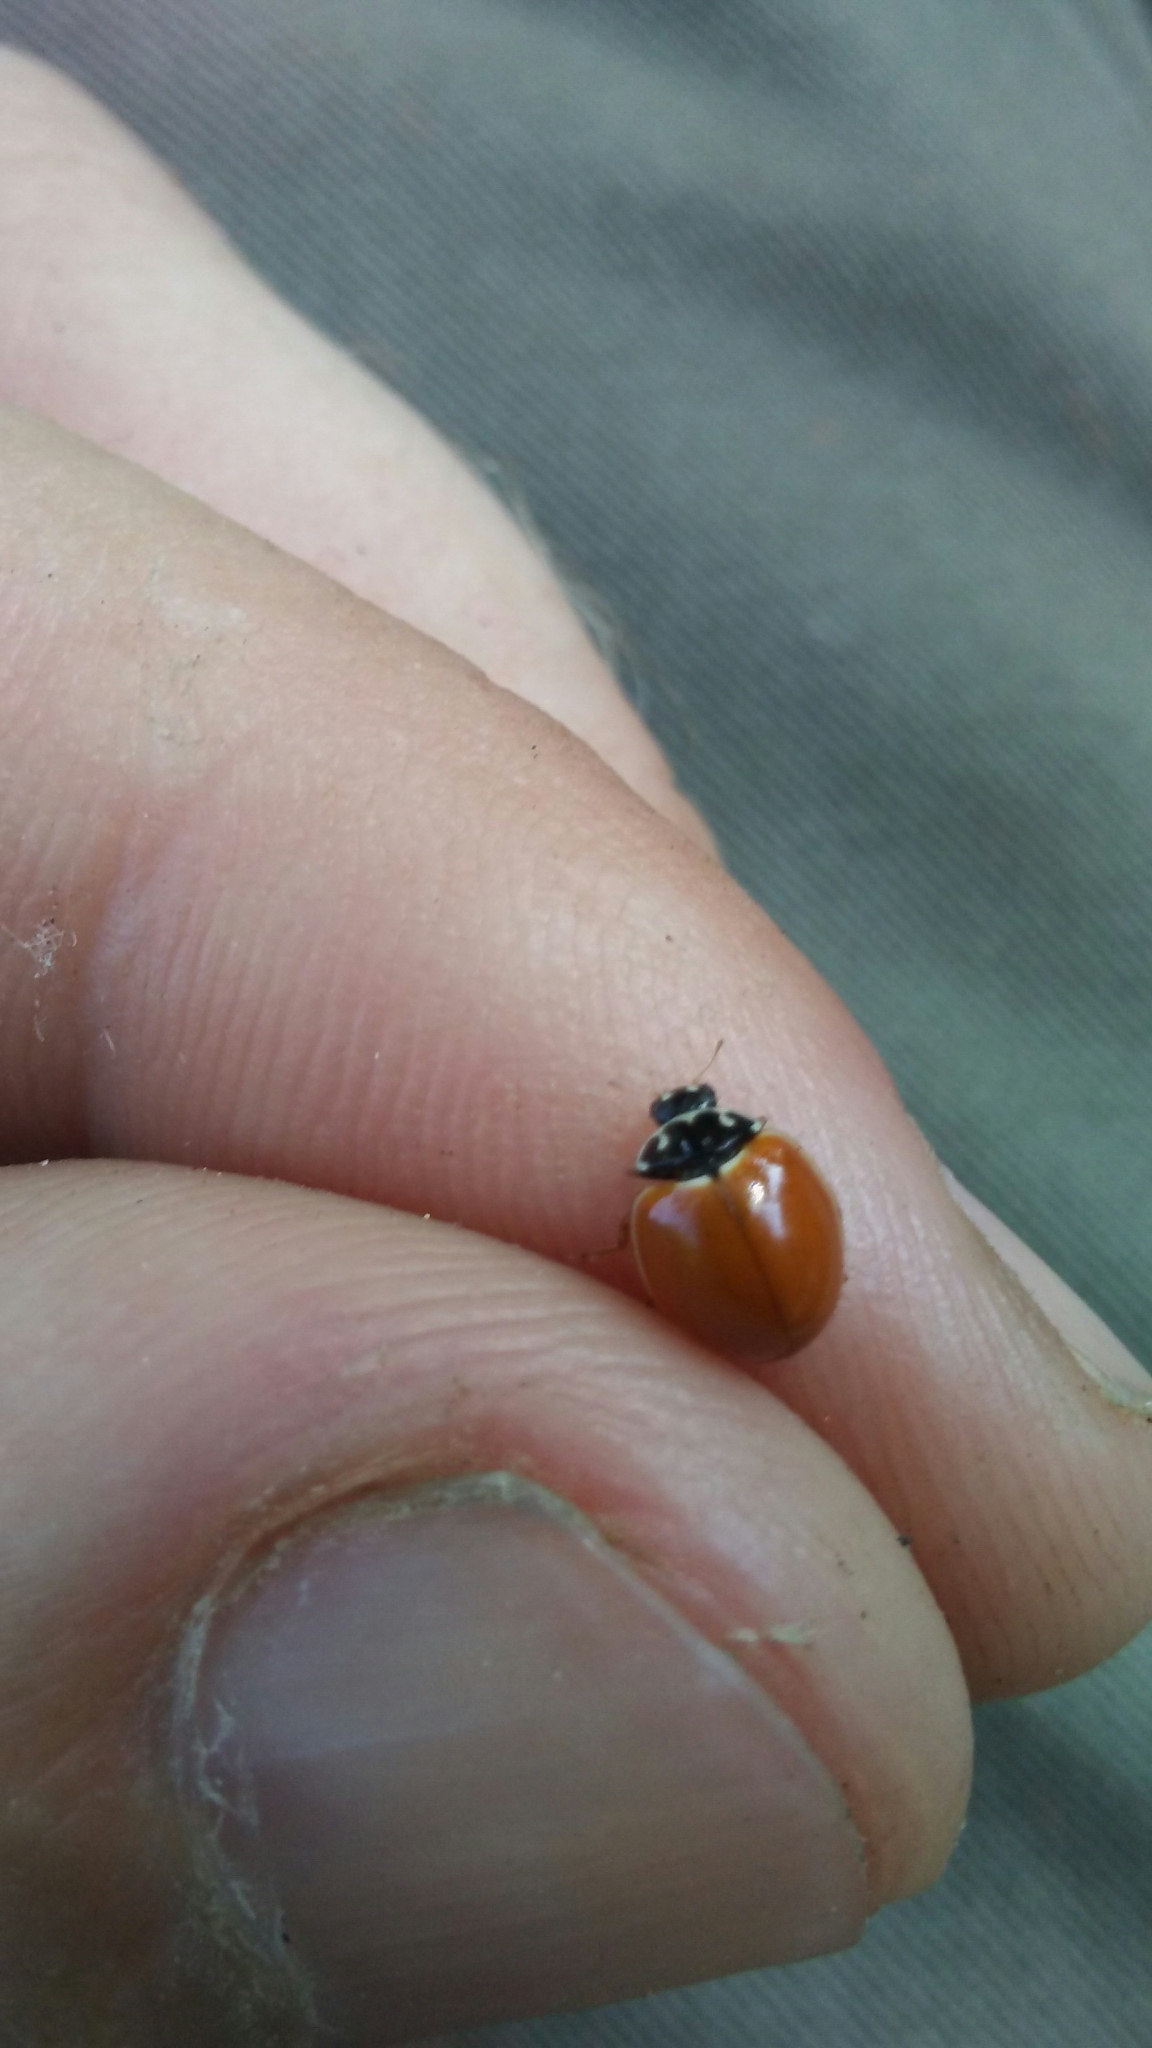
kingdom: Animalia
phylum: Arthropoda
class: Insecta
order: Coleoptera
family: Coccinellidae
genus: Cycloneda
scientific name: Cycloneda munda
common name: Polished lady beetle
